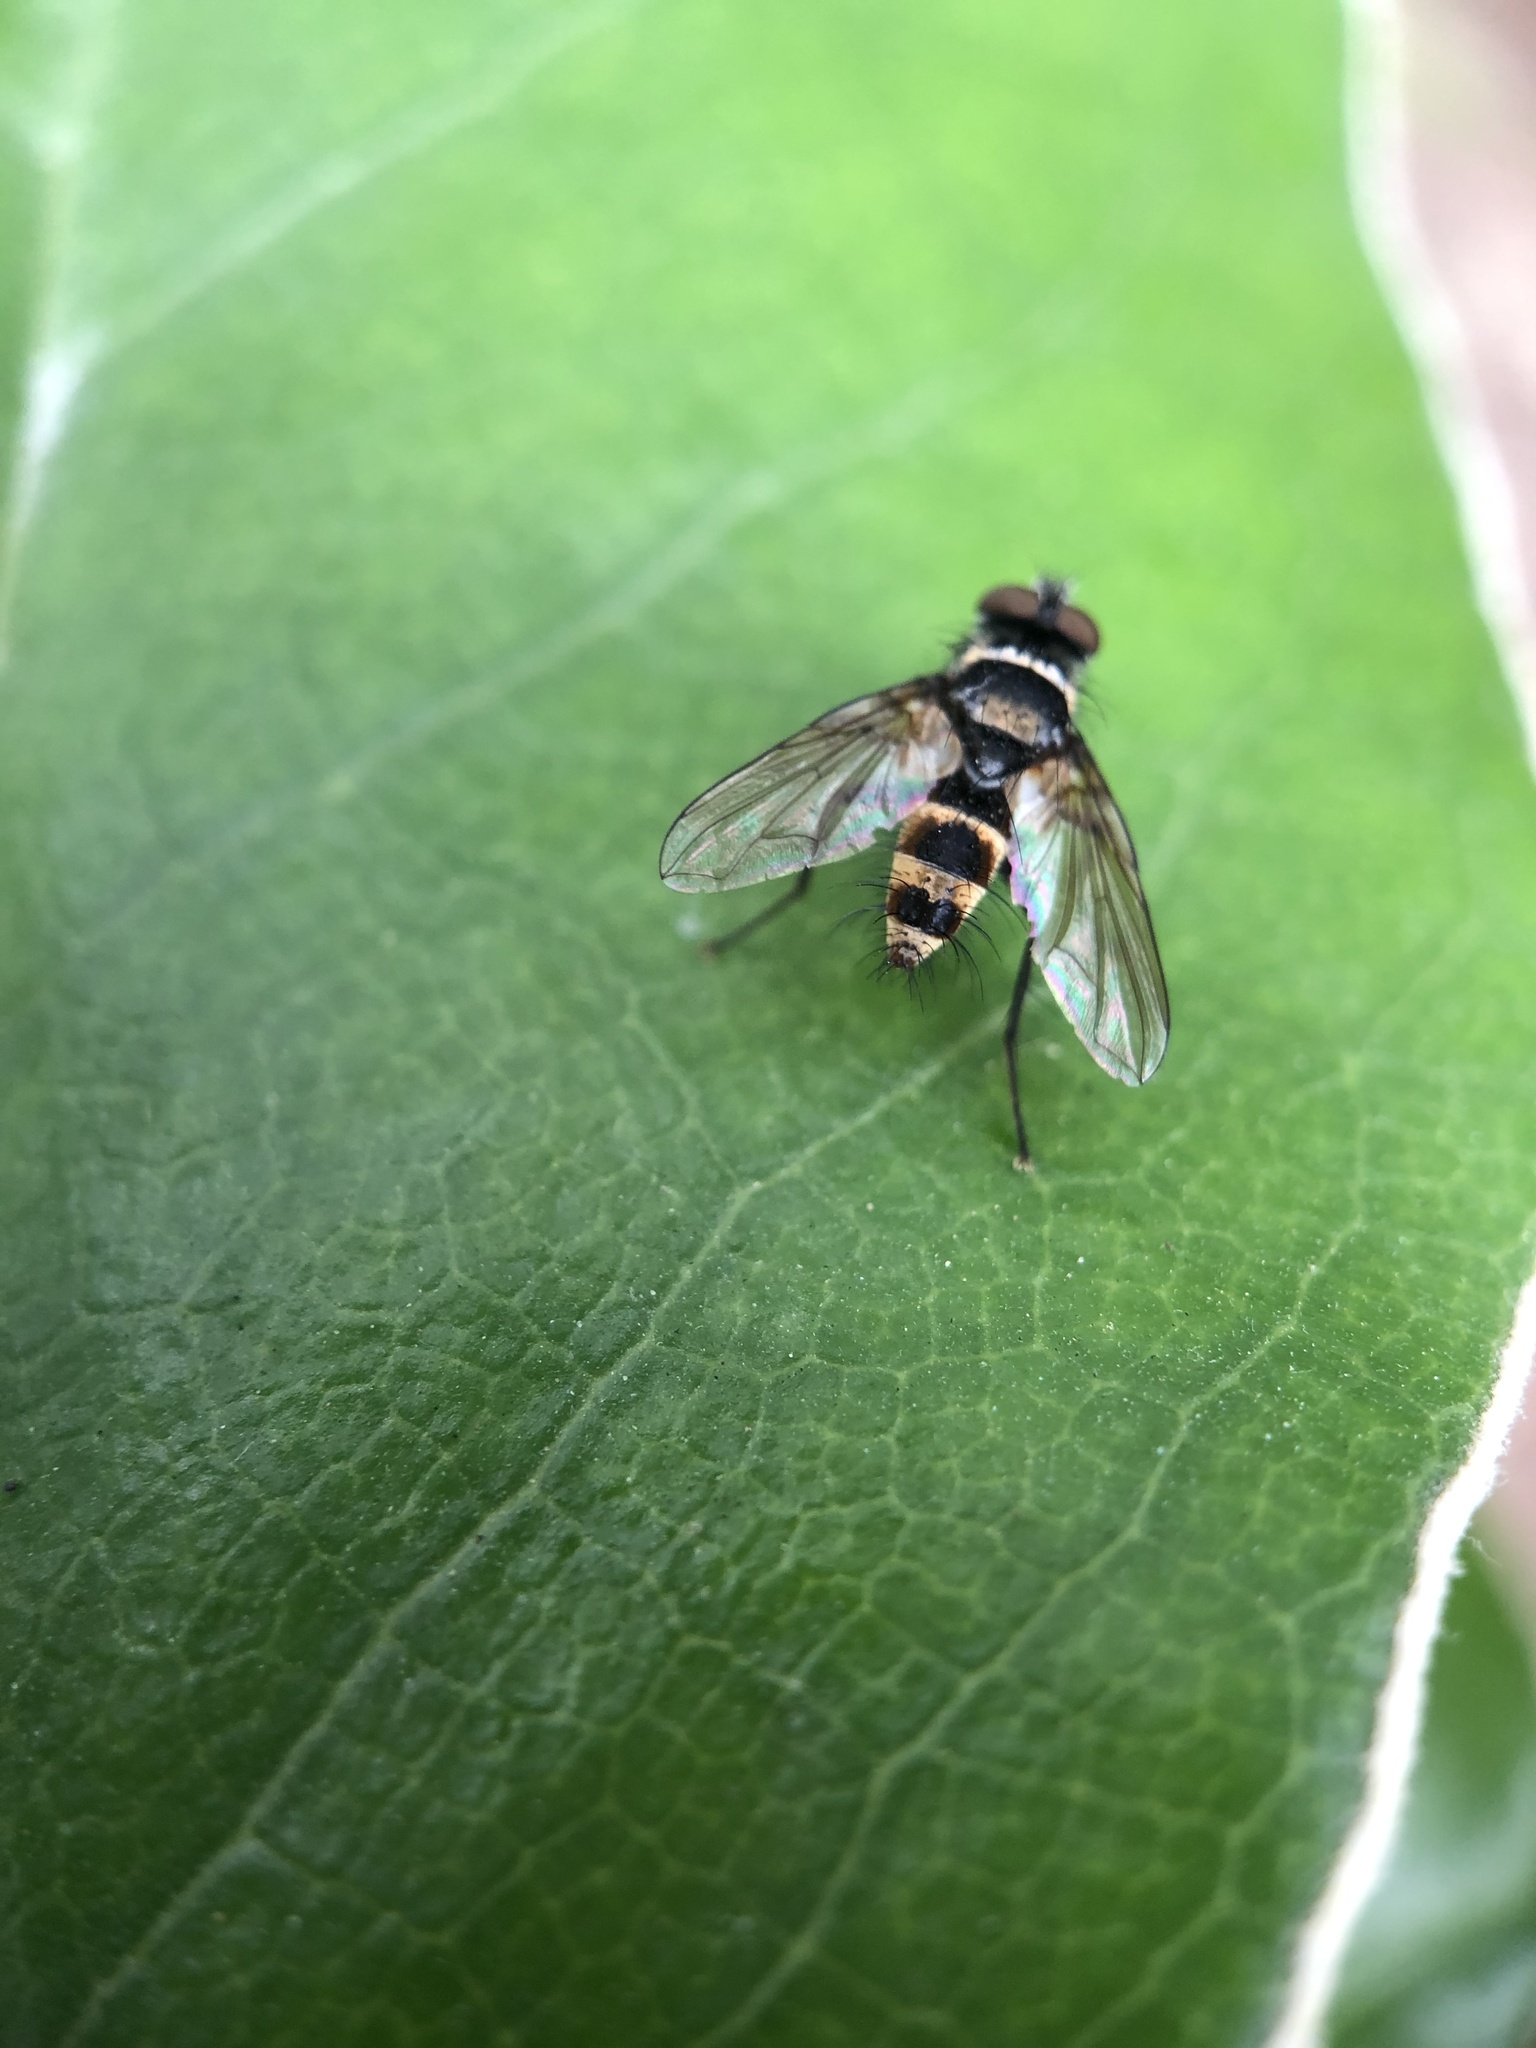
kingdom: Animalia
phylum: Arthropoda
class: Insecta
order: Diptera
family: Tachinidae
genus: Trigonospila
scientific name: Trigonospila brevifacies
